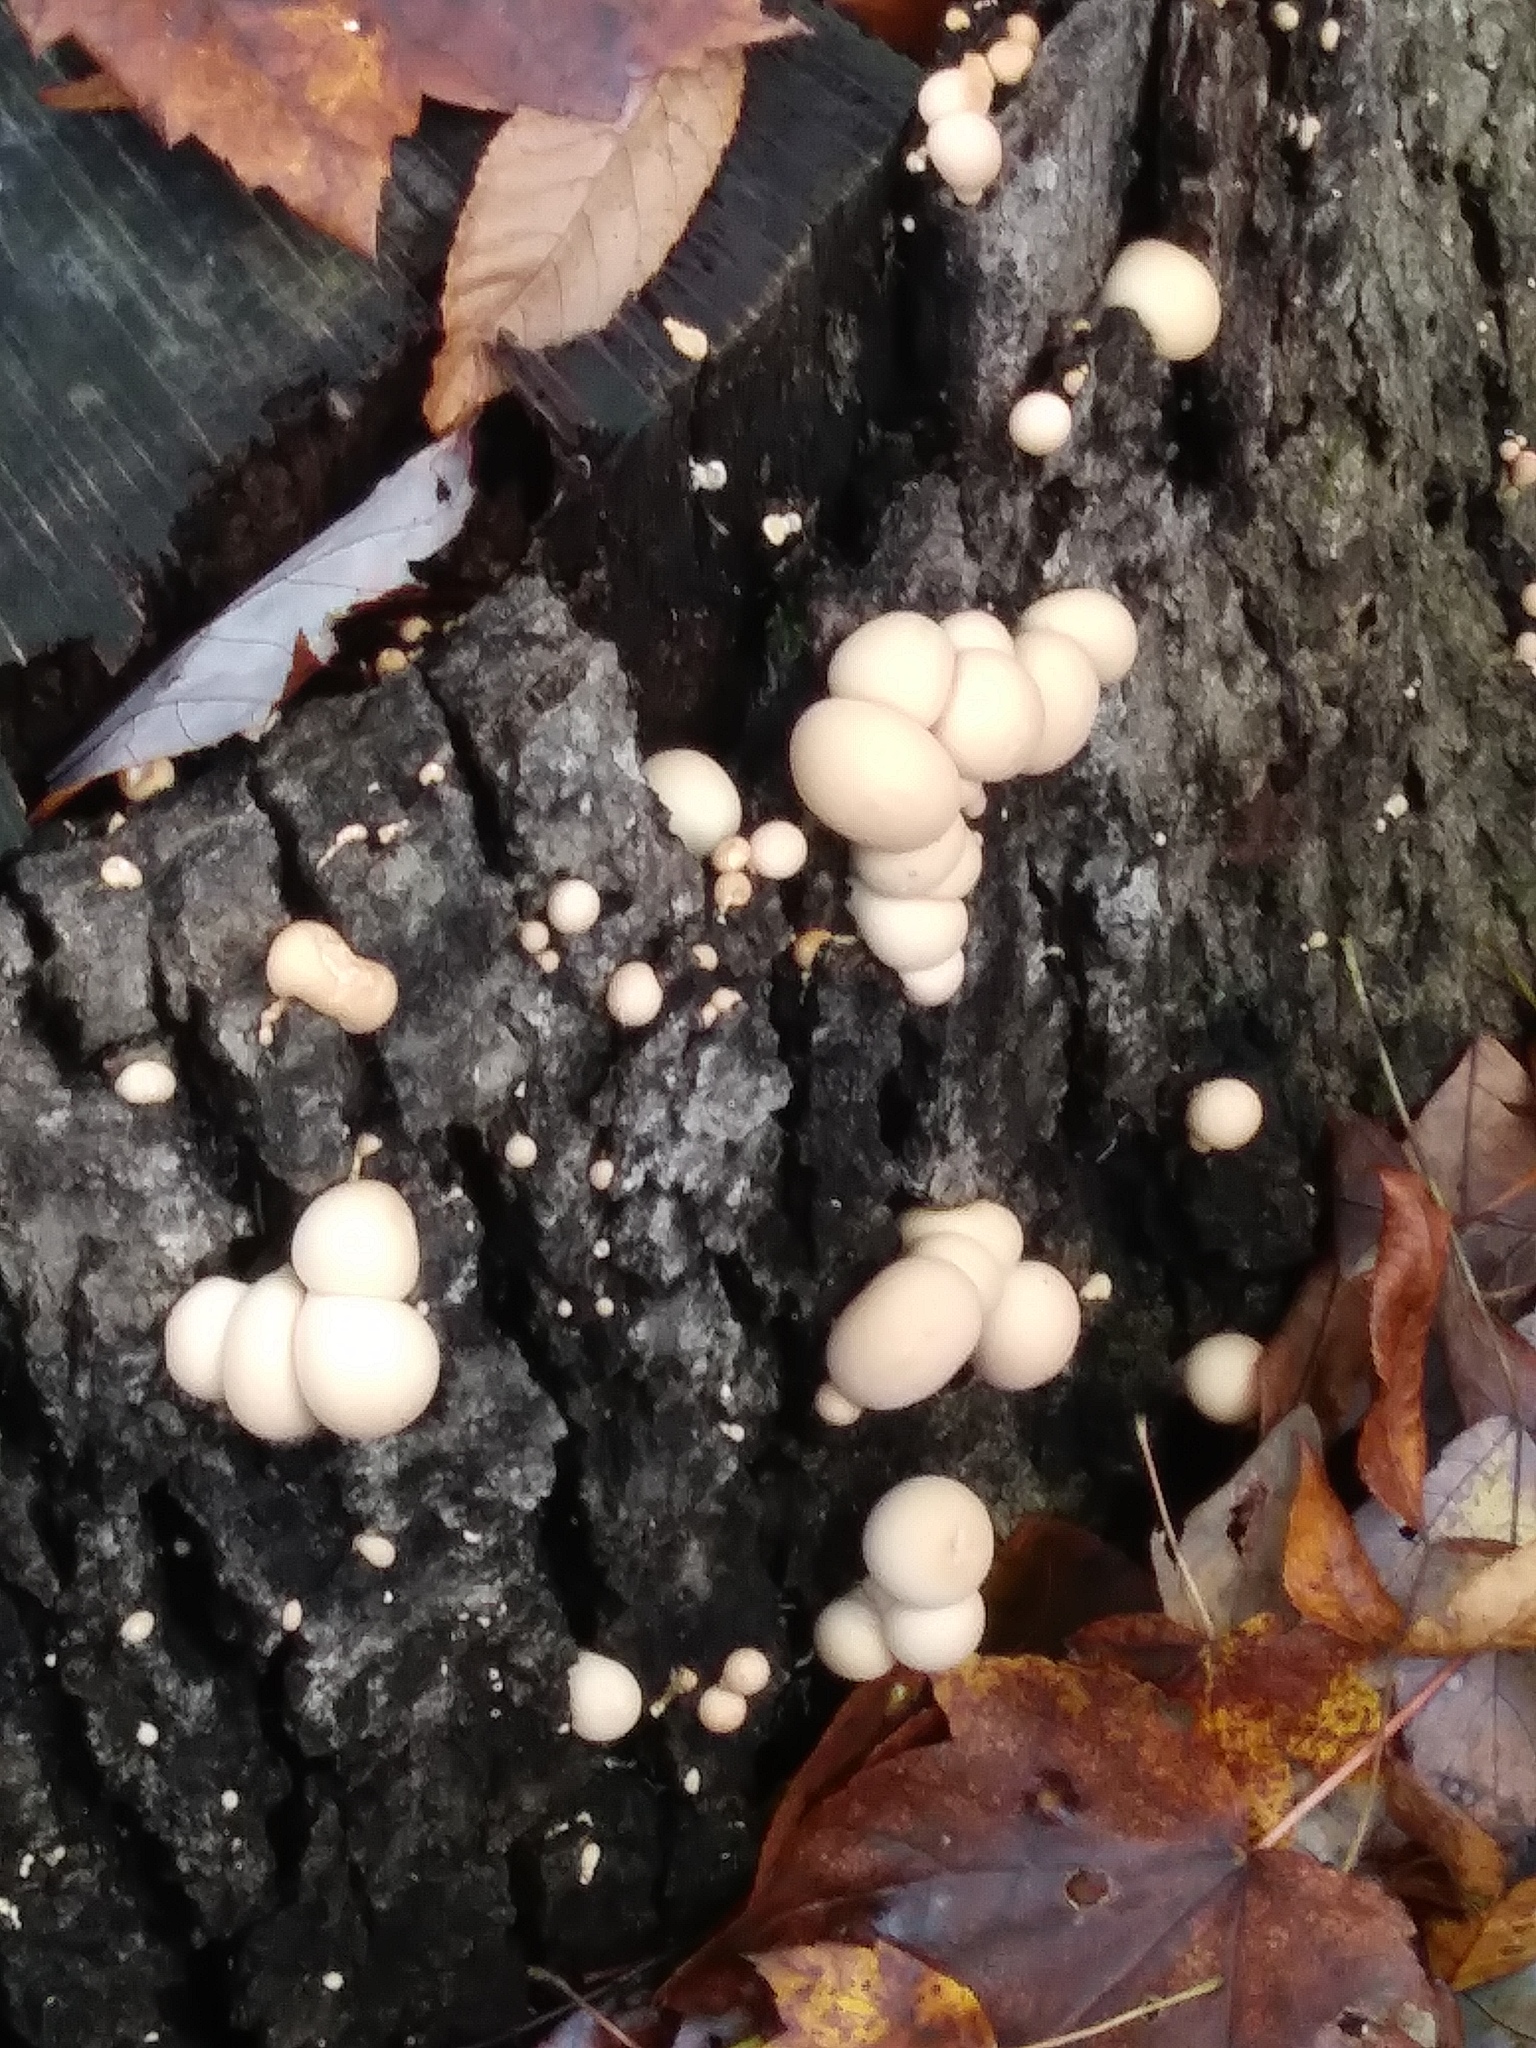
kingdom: Fungi
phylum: Basidiomycota
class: Agaricomycetes
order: Agaricales
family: Lycoperdaceae
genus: Apioperdon
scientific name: Apioperdon pyriforme
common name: Pear-shaped puffball
